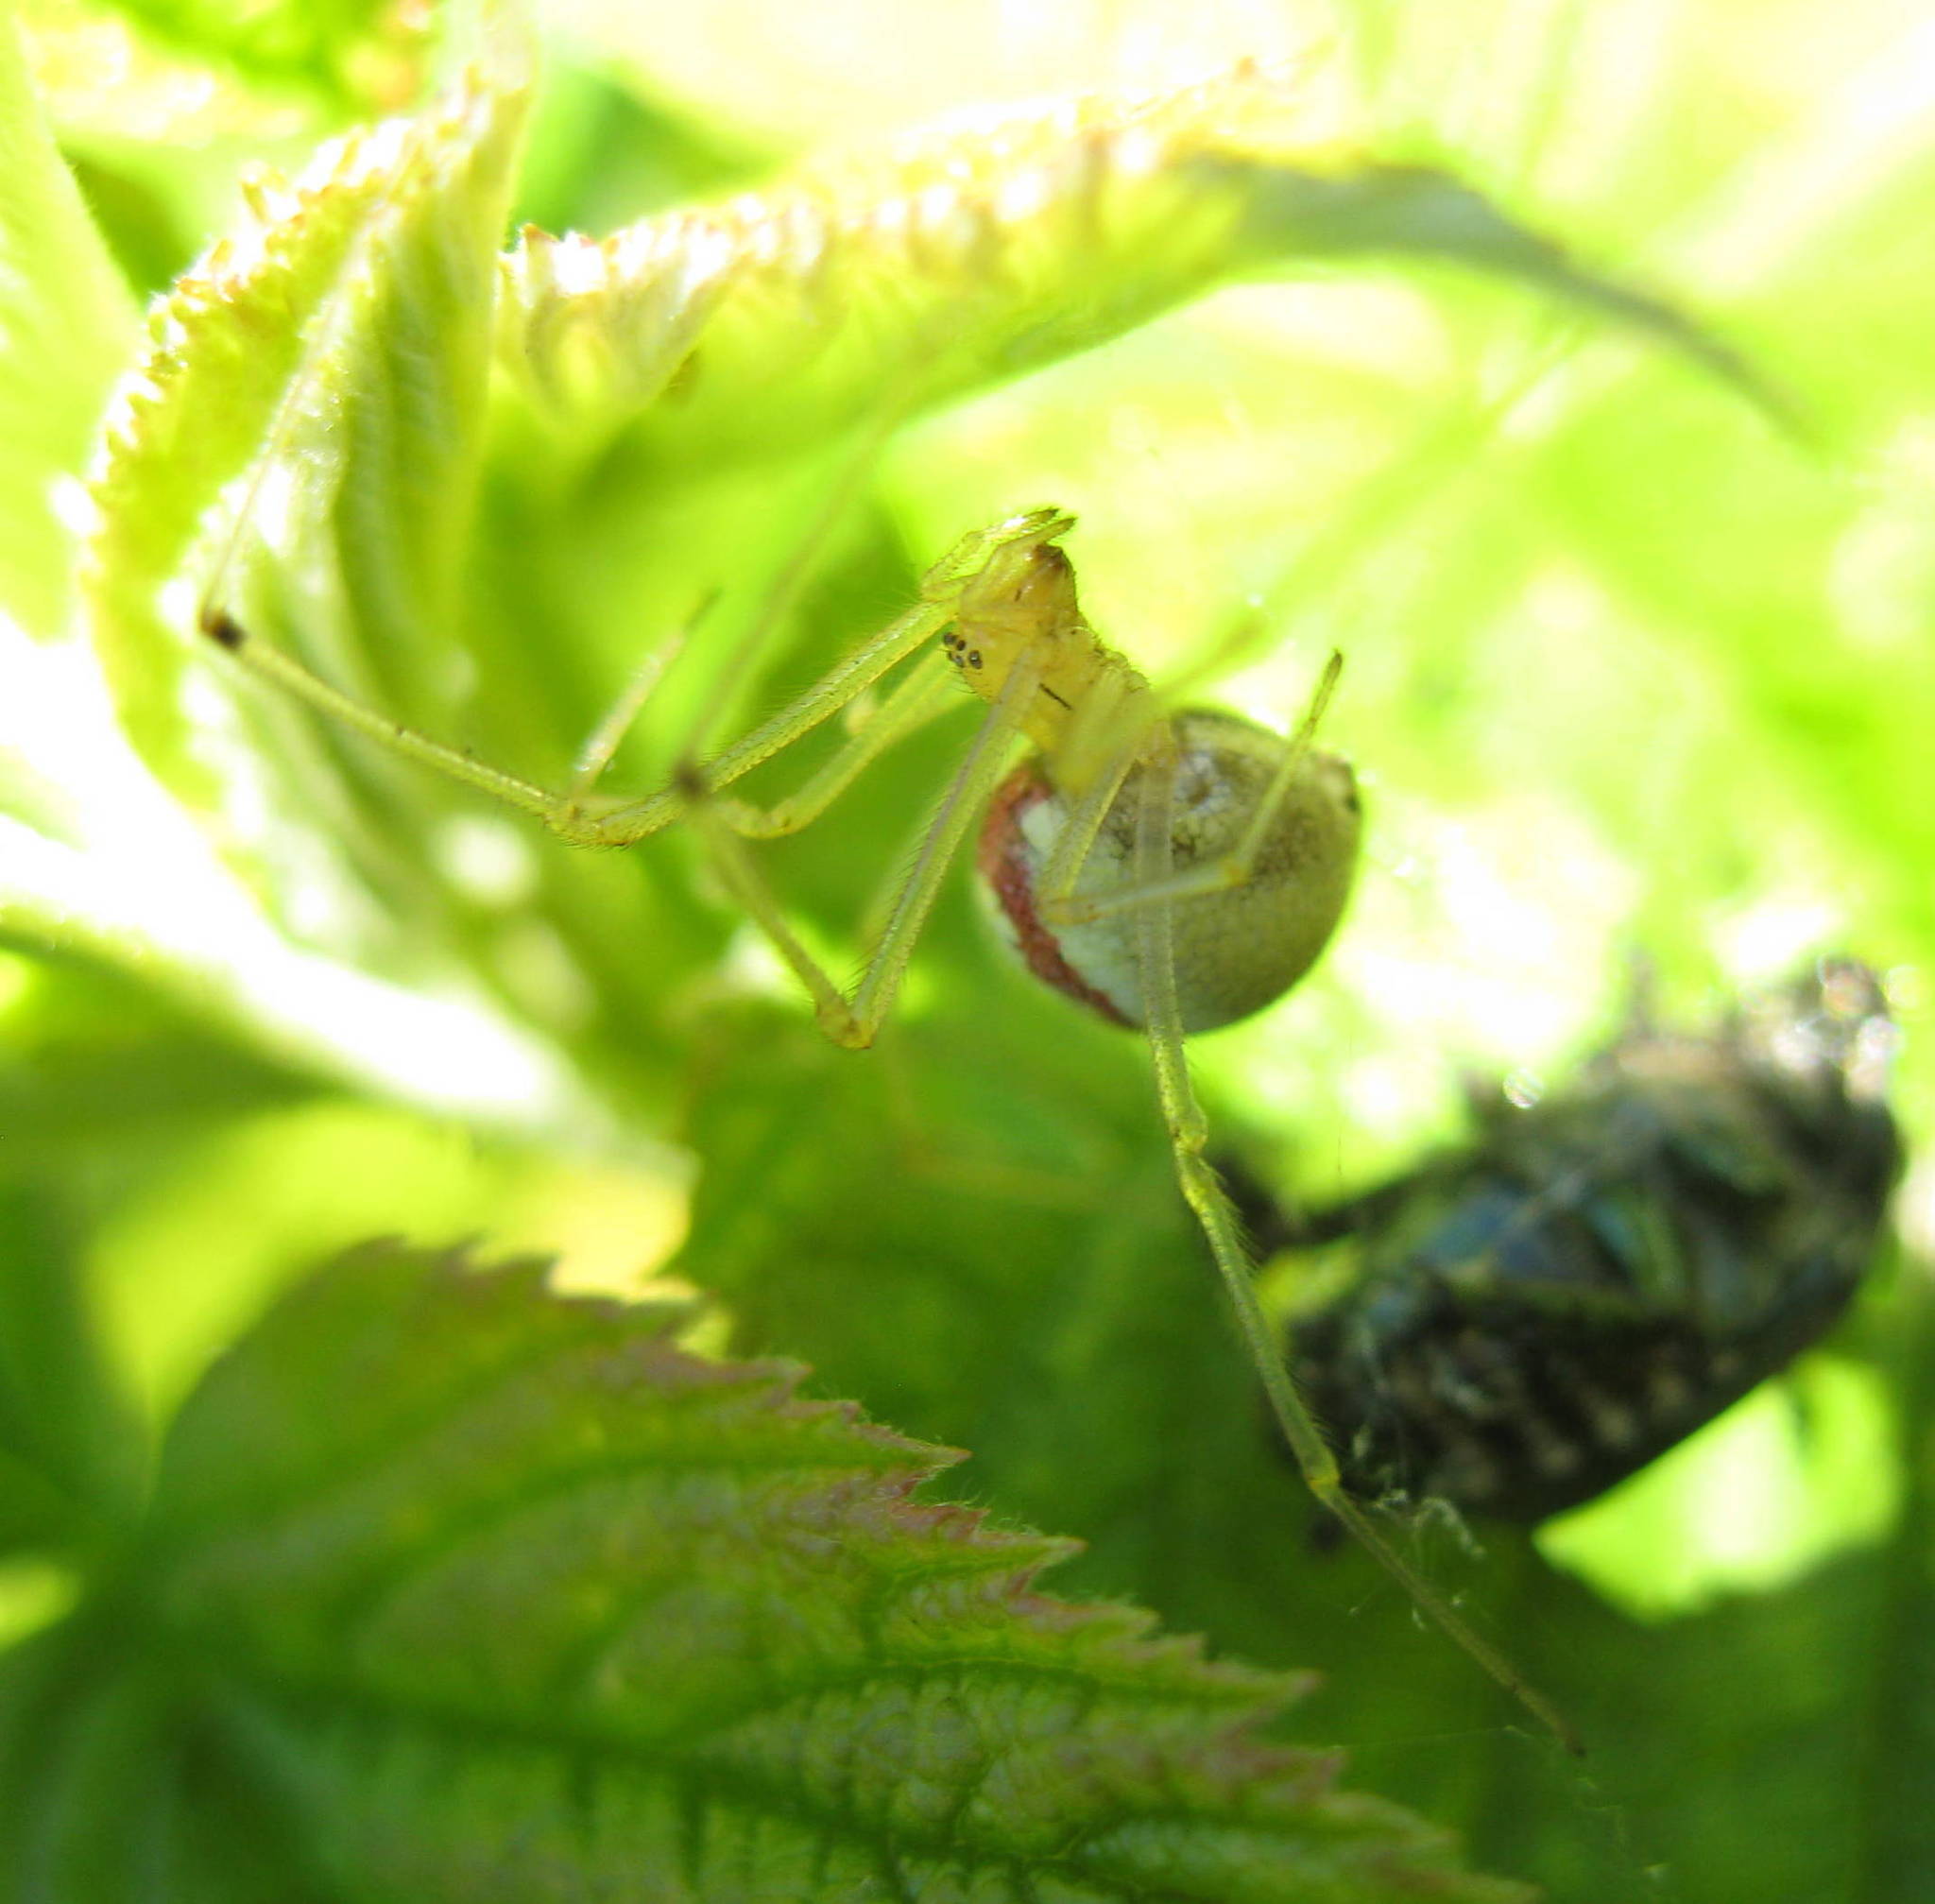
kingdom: Animalia
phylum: Arthropoda
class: Arachnida
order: Araneae
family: Theridiidae
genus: Enoplognatha
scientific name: Enoplognatha ovata
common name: Common candy-striped spider
